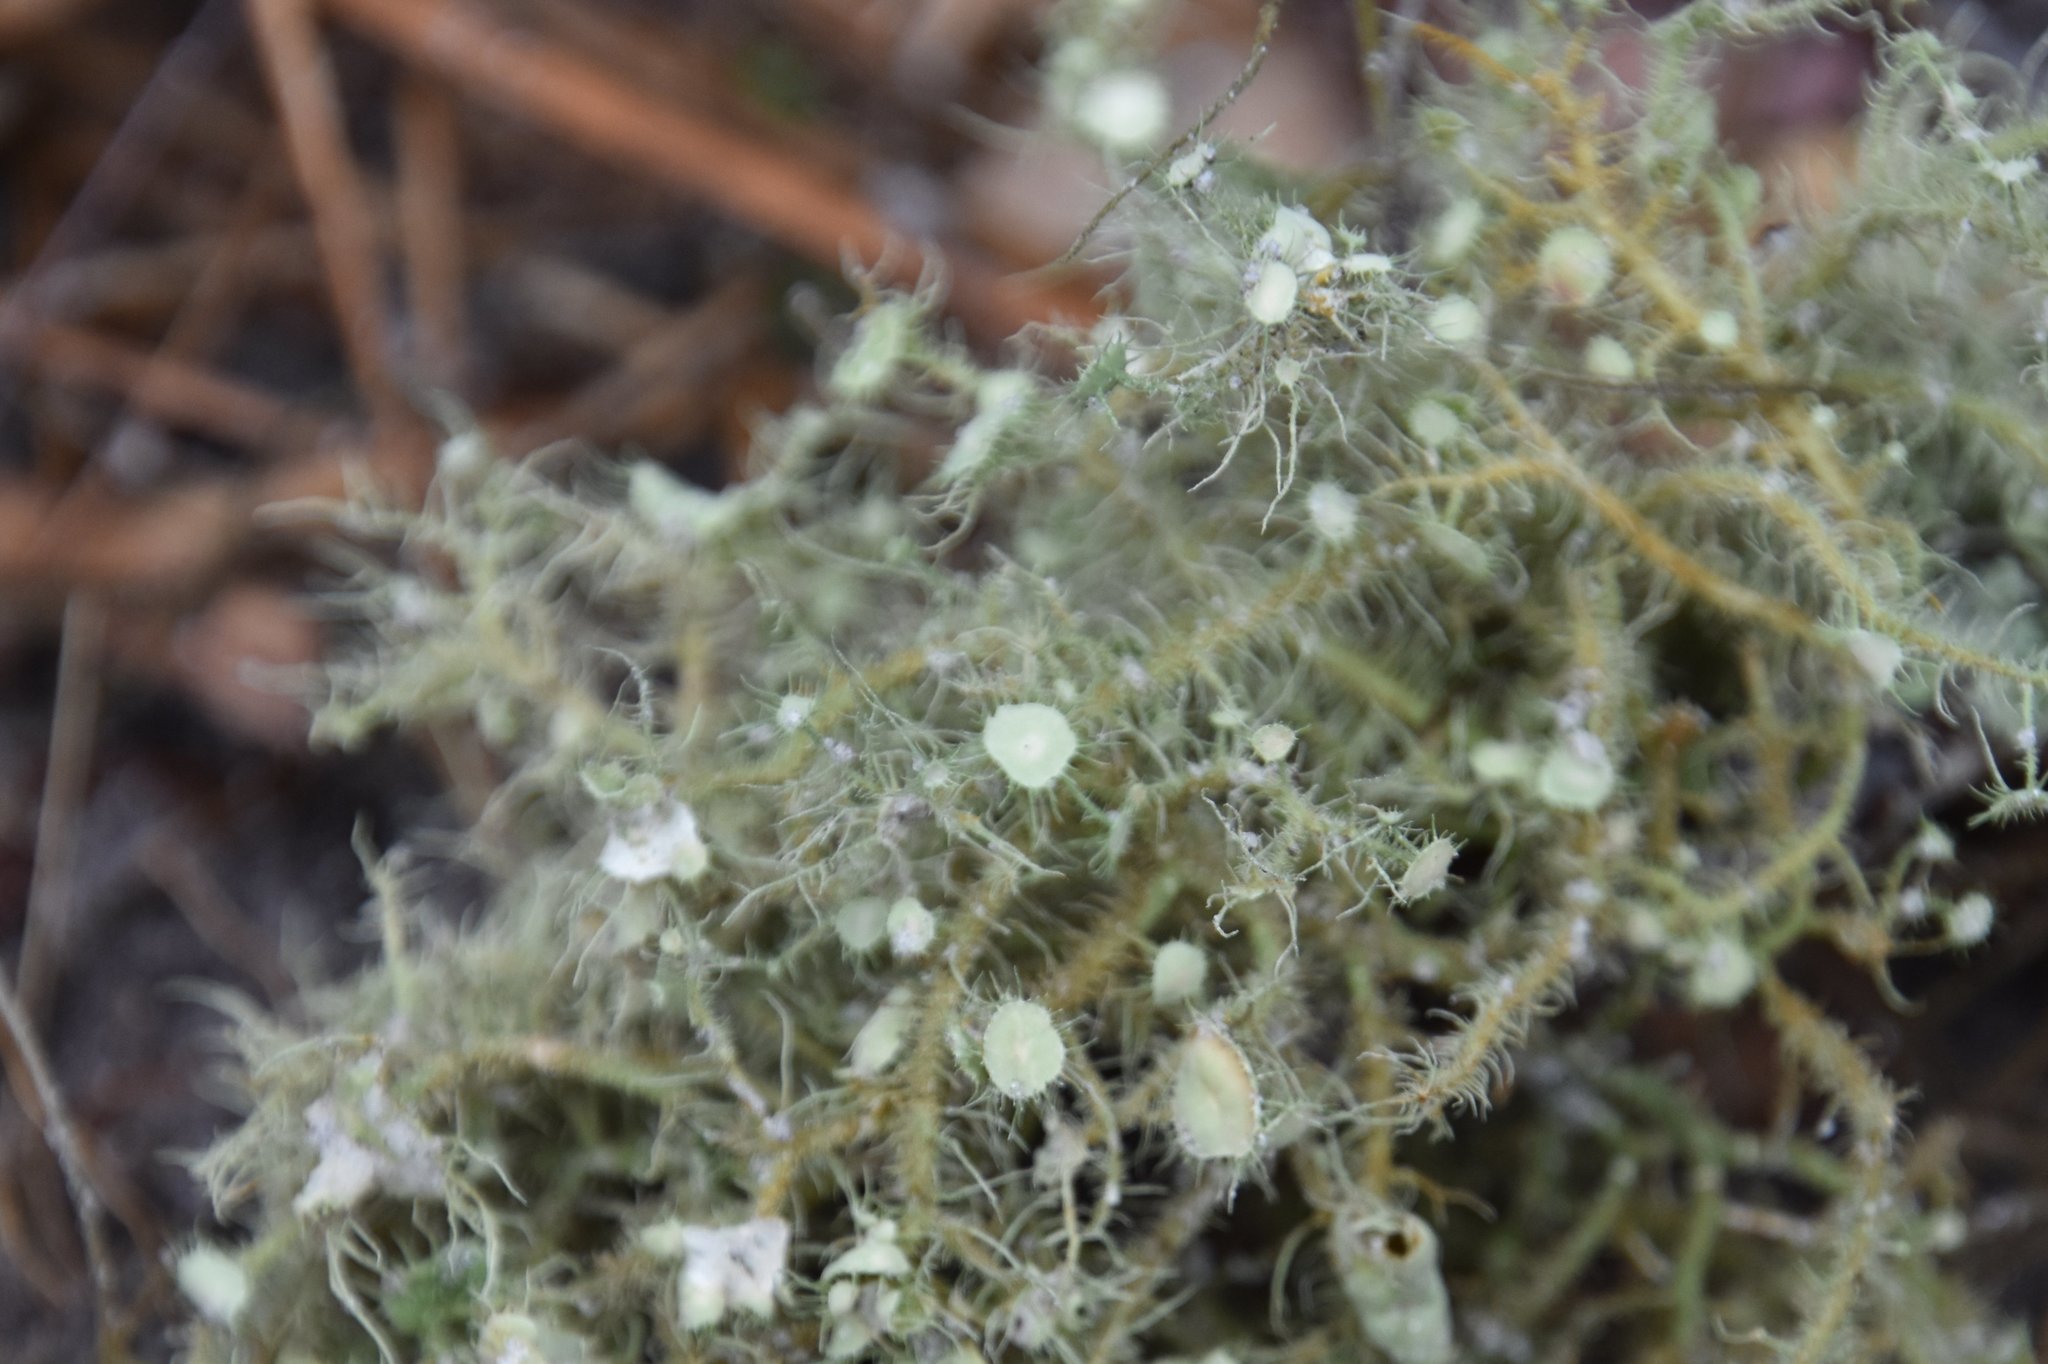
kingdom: Fungi
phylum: Ascomycota
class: Lecanoromycetes
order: Lecanorales
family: Parmeliaceae
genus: Usnea
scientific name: Usnea strigosa
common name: Bushy beard lichen
